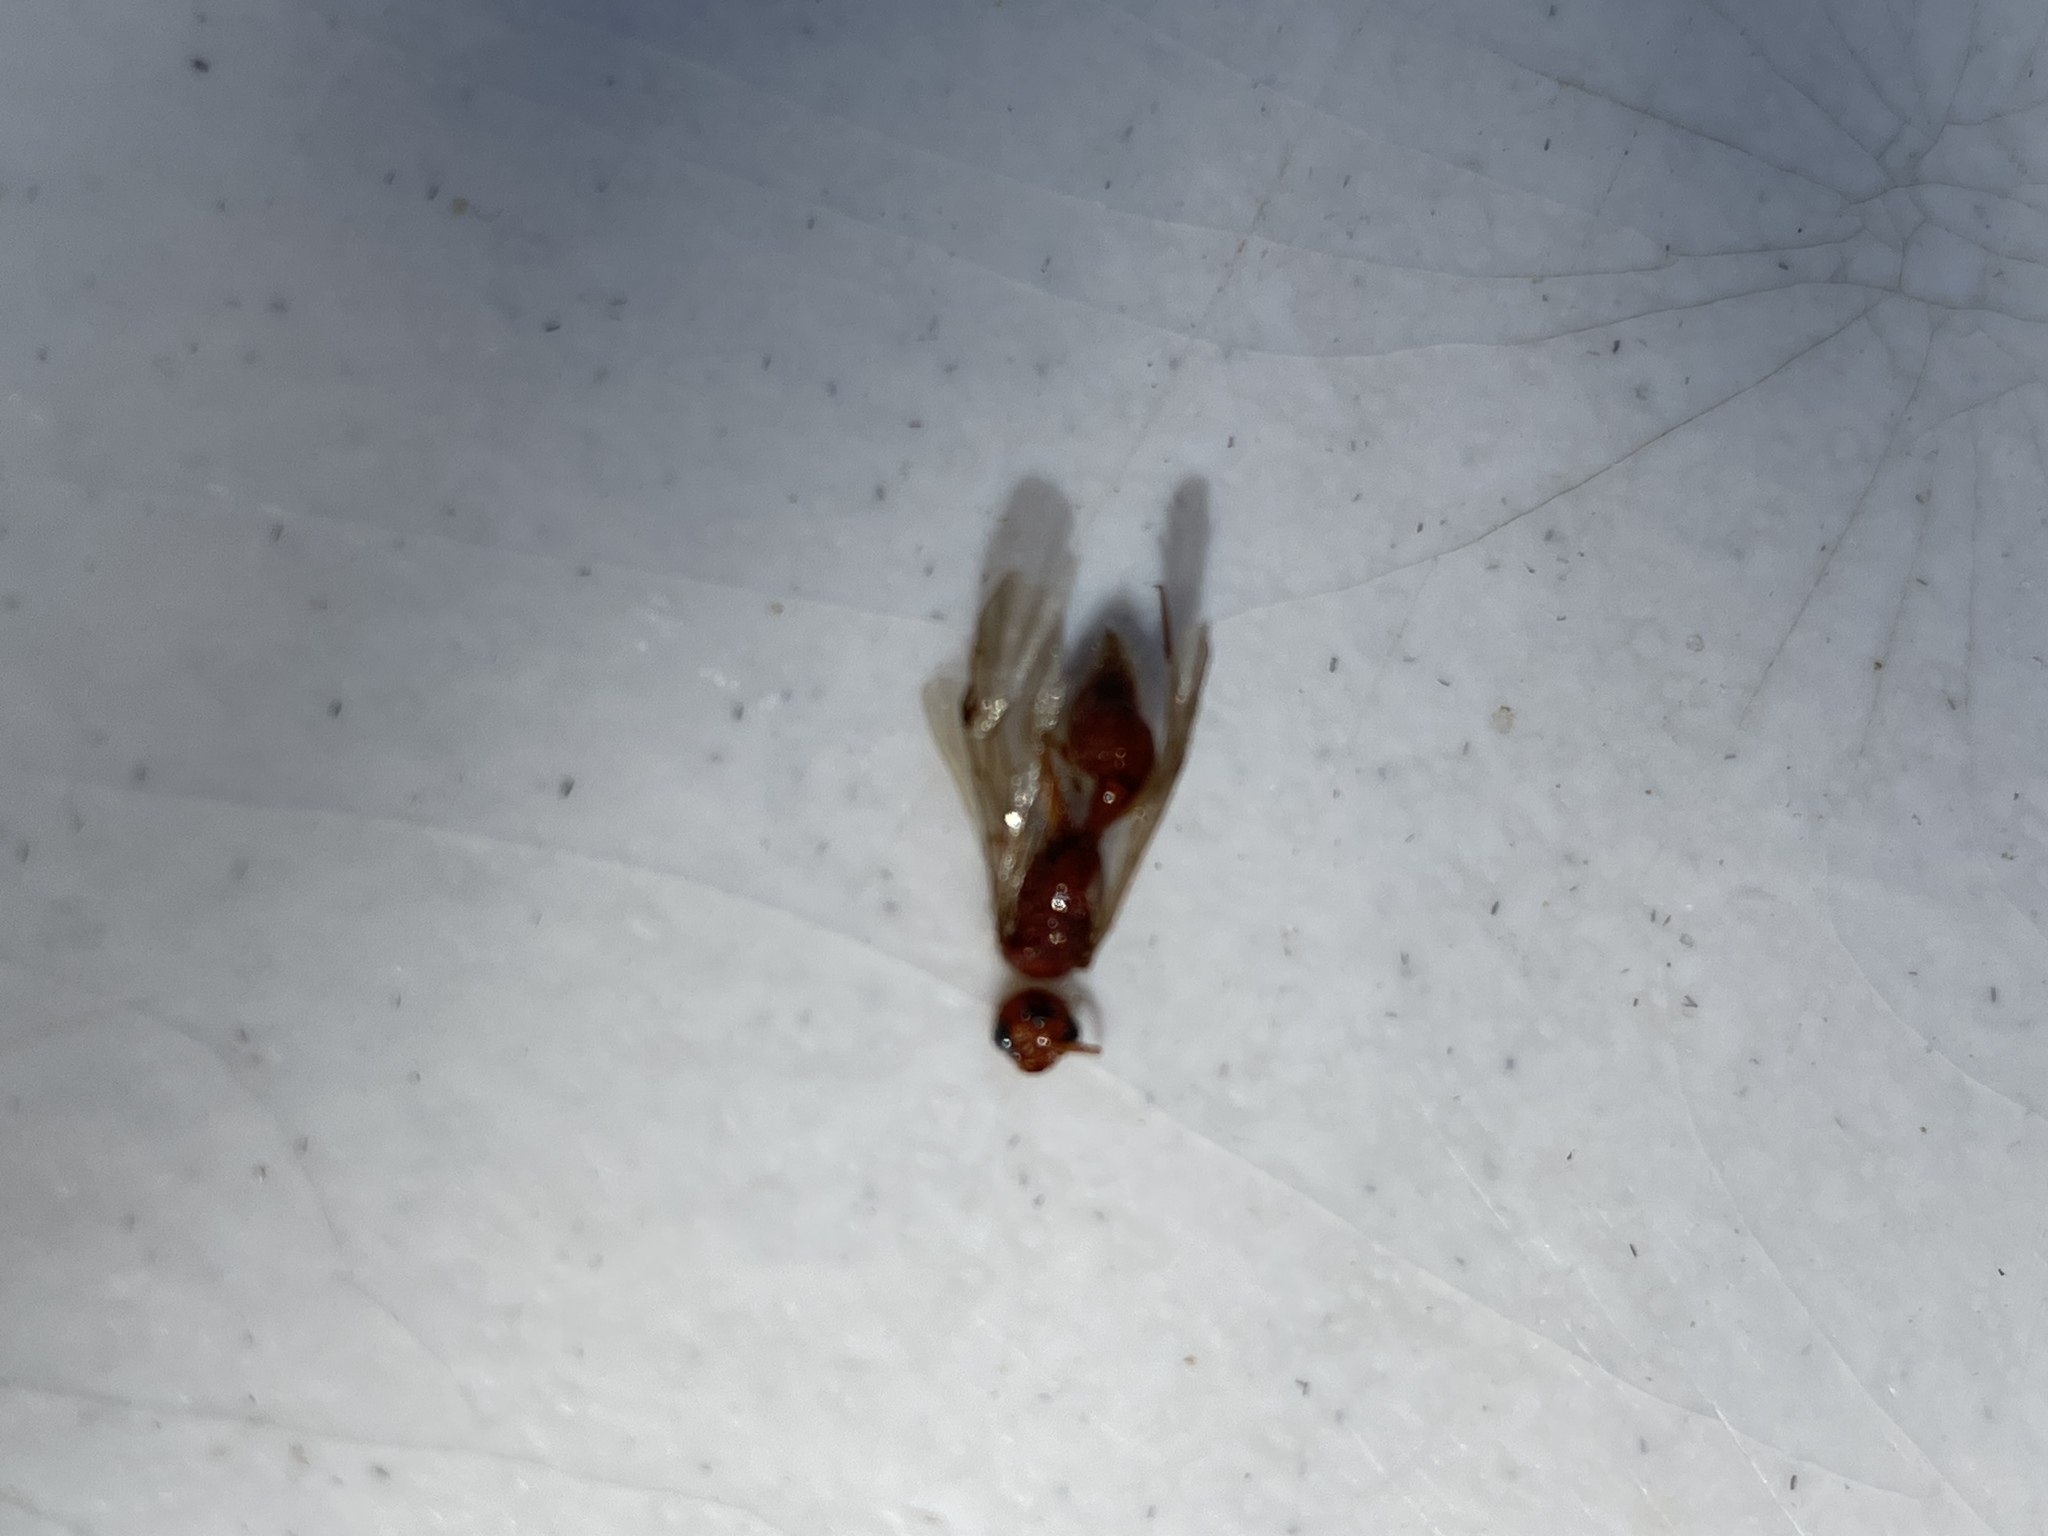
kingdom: Animalia
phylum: Arthropoda
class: Insecta
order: Hymenoptera
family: Mutillidae
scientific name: Mutillidae
